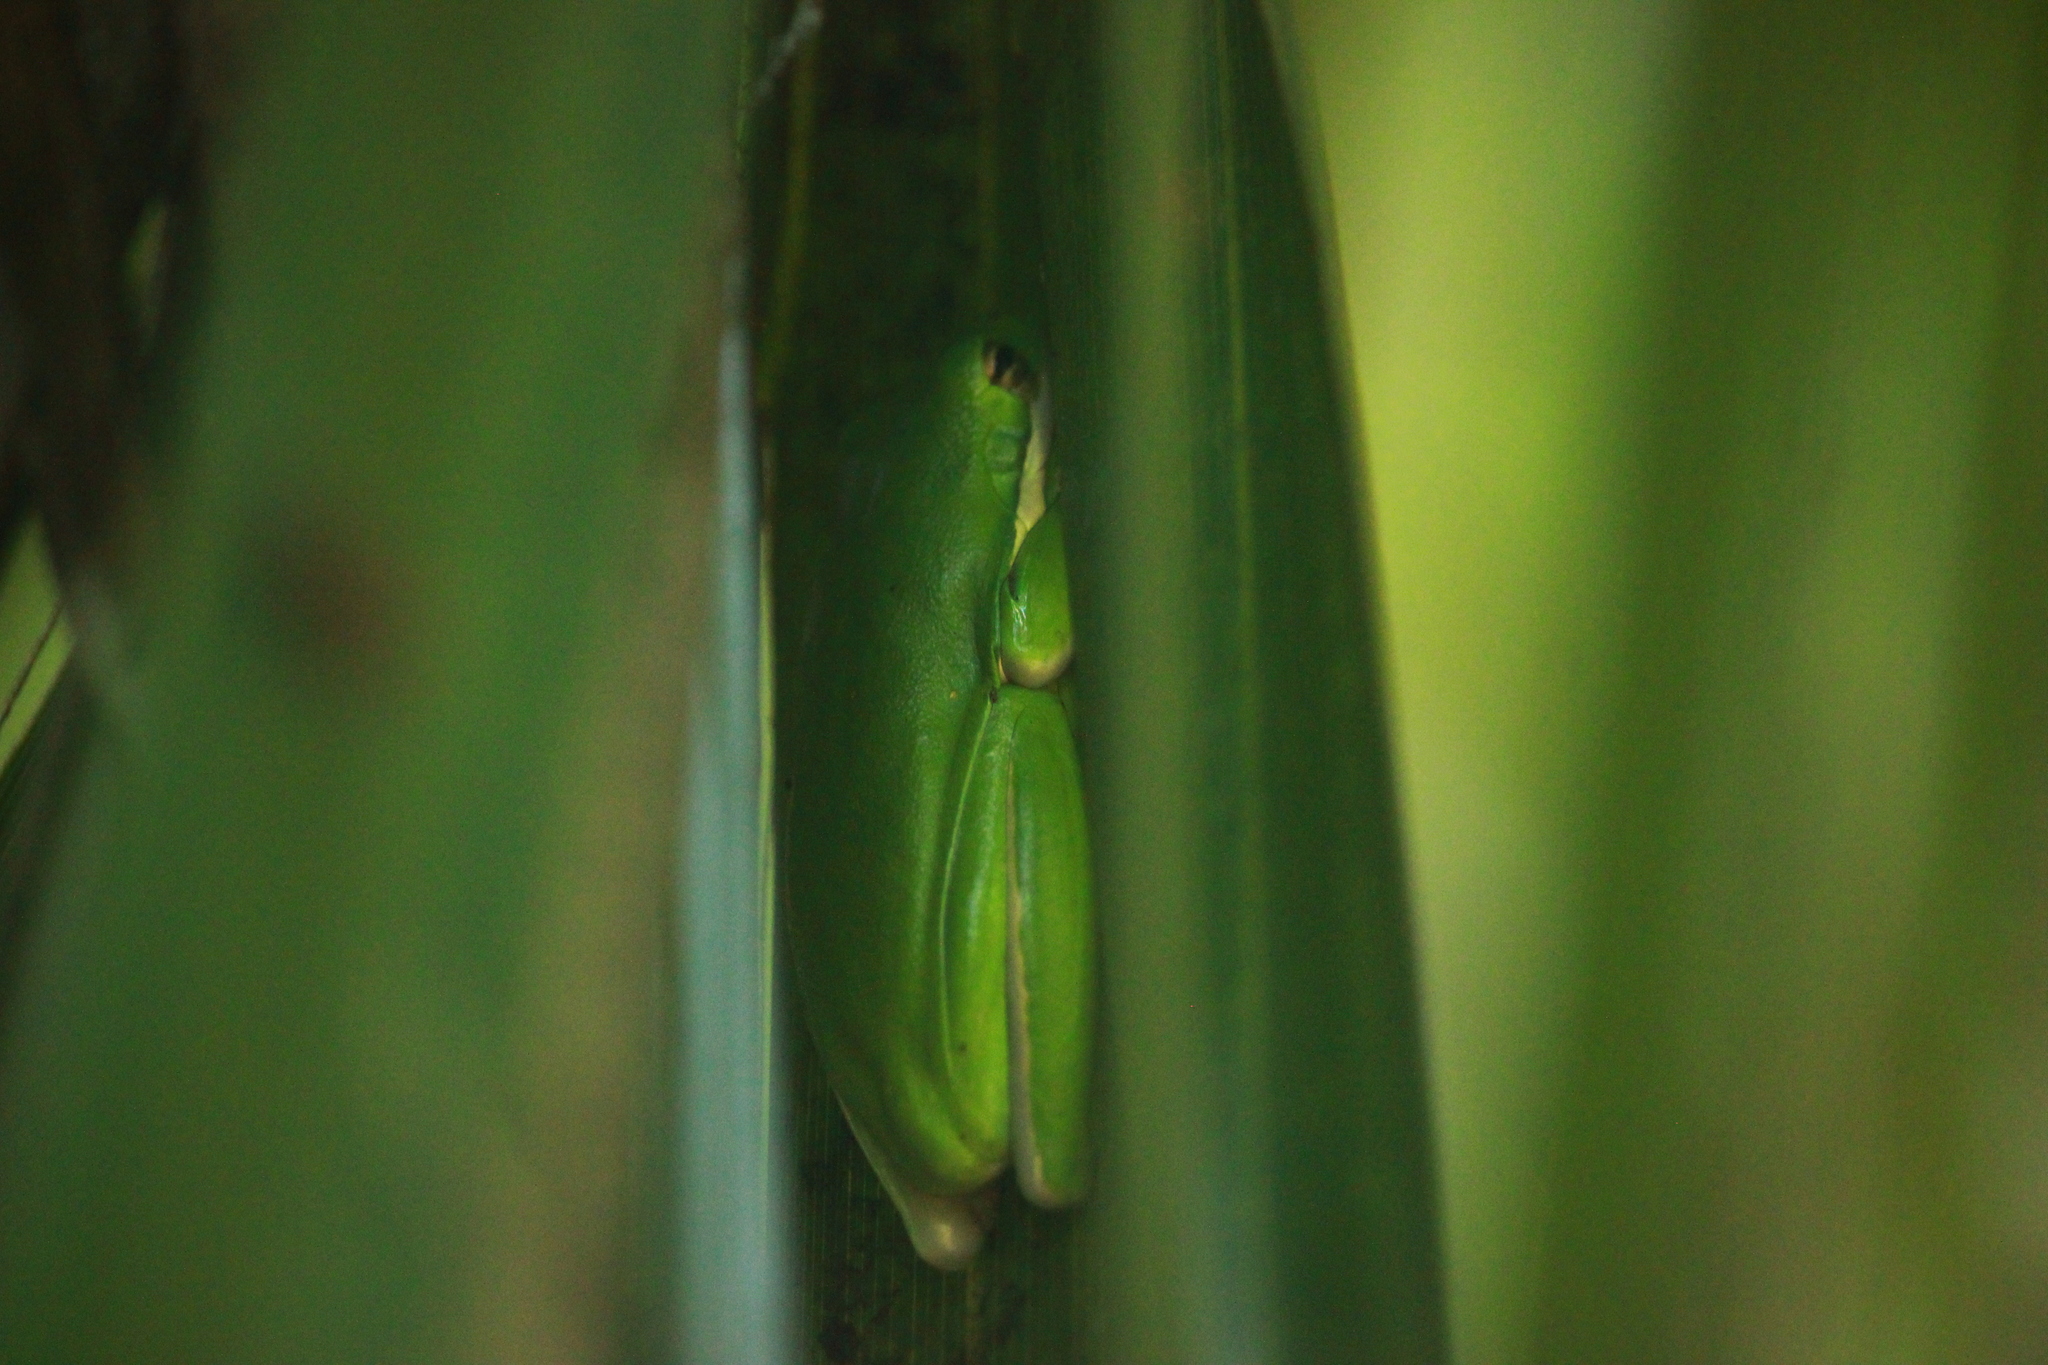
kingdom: Animalia
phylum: Chordata
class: Amphibia
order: Anura
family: Hylidae
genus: Dryophytes
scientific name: Dryophytes cinereus
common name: Green treefrog
